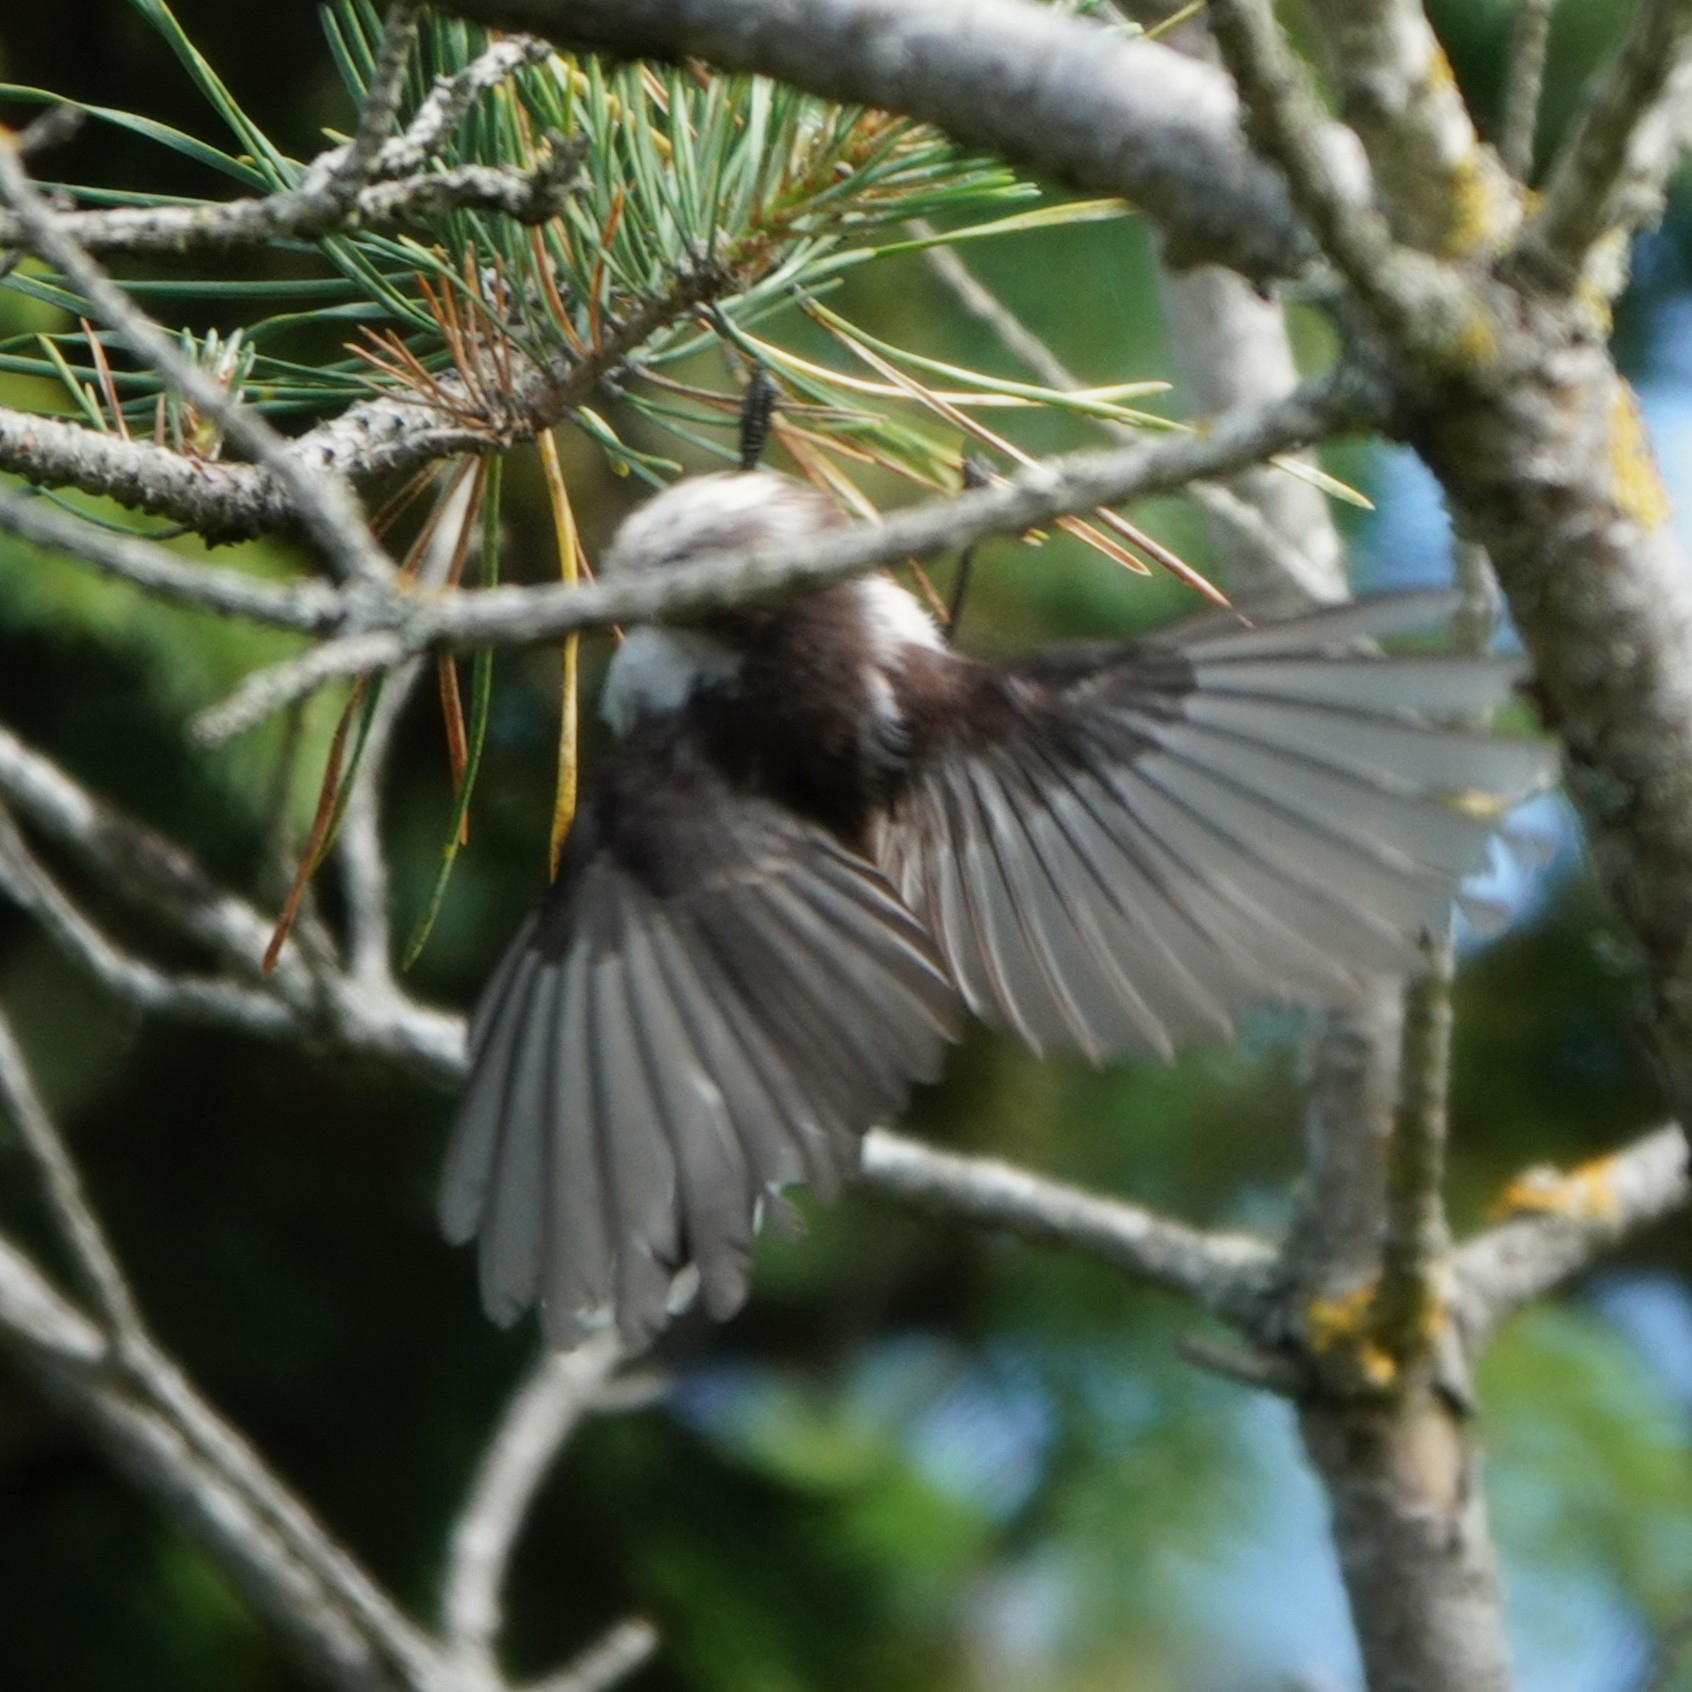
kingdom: Animalia
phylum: Chordata
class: Aves
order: Passeriformes
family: Aegithalidae
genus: Aegithalos
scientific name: Aegithalos caudatus
